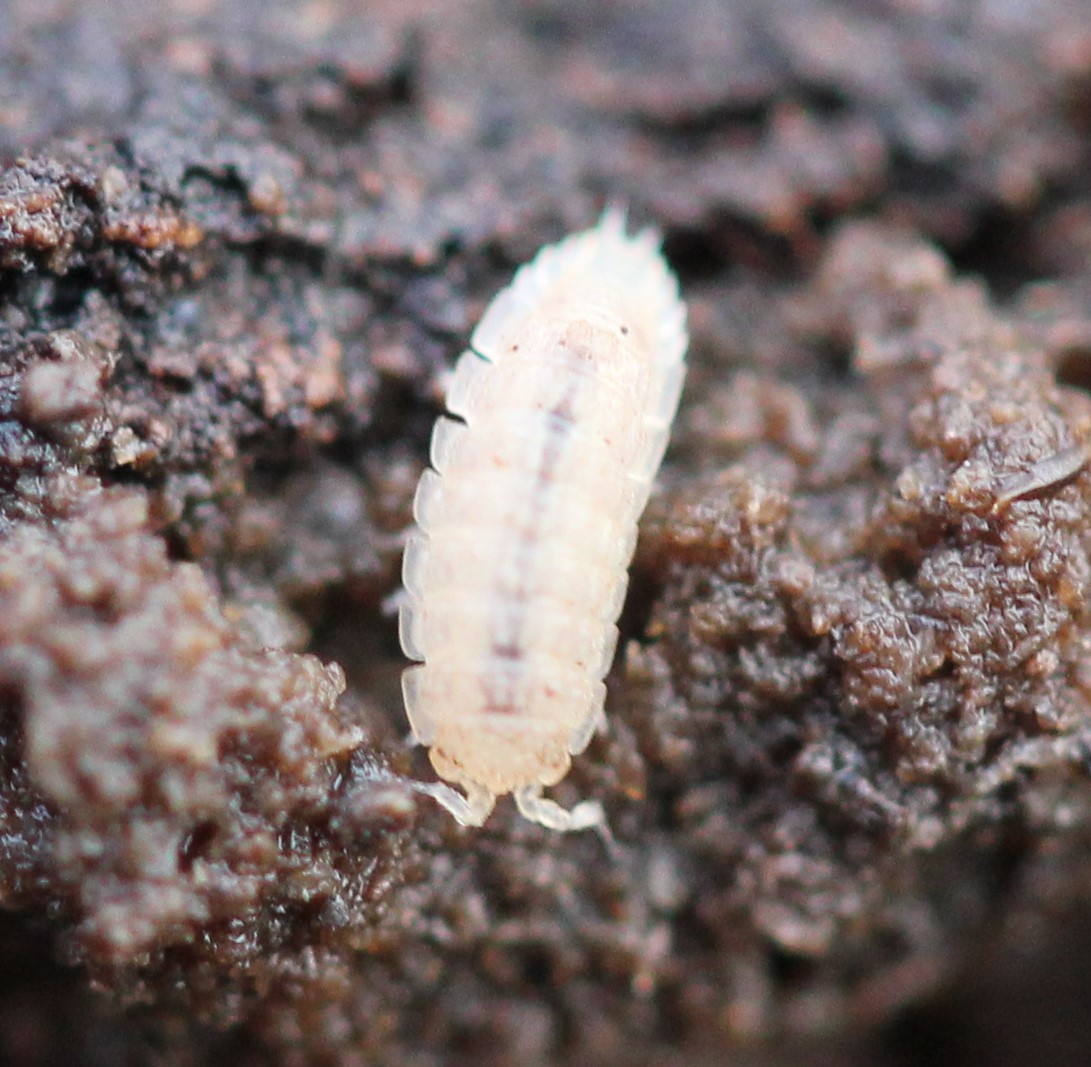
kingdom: Animalia
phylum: Arthropoda
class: Malacostraca
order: Isopoda
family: Trichoniscidae
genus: Haplophthalmus
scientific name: Haplophthalmus danicus
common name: Pillbug
